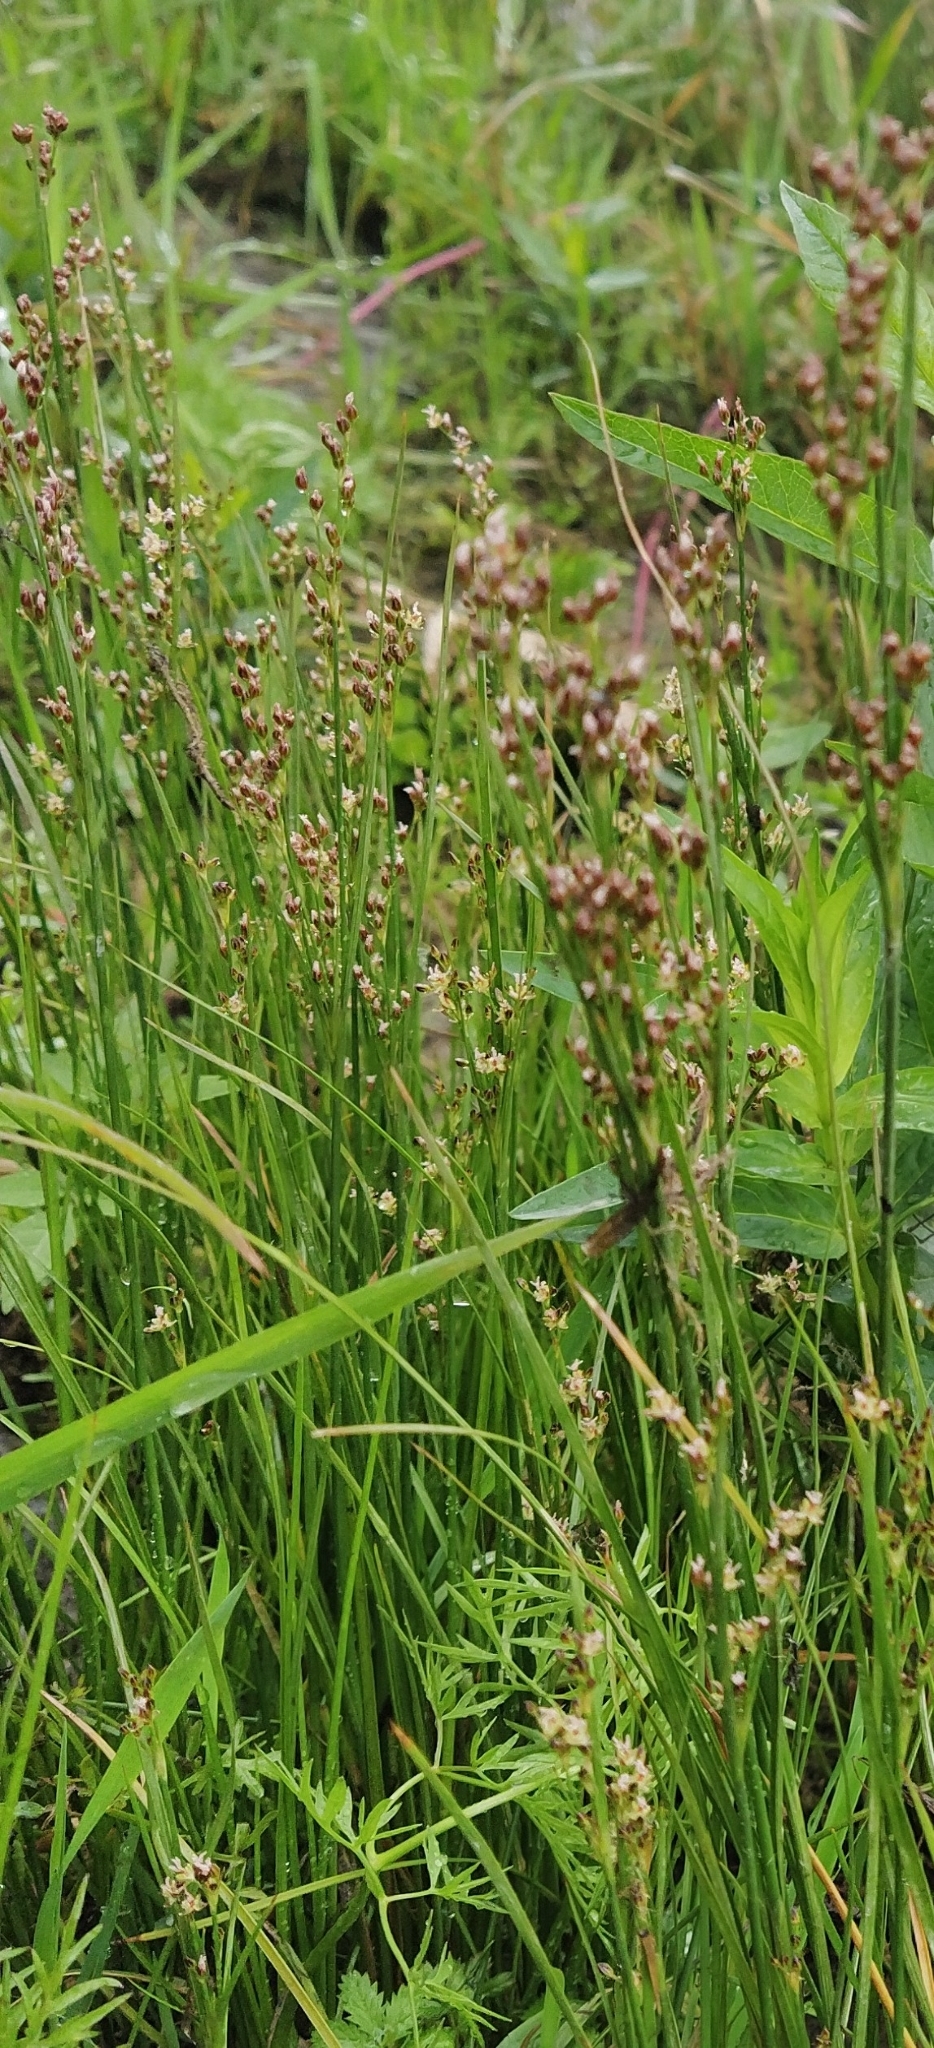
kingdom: Plantae
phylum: Tracheophyta
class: Liliopsida
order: Poales
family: Juncaceae
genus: Juncus
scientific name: Juncus compressus
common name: Round-fruited rush
